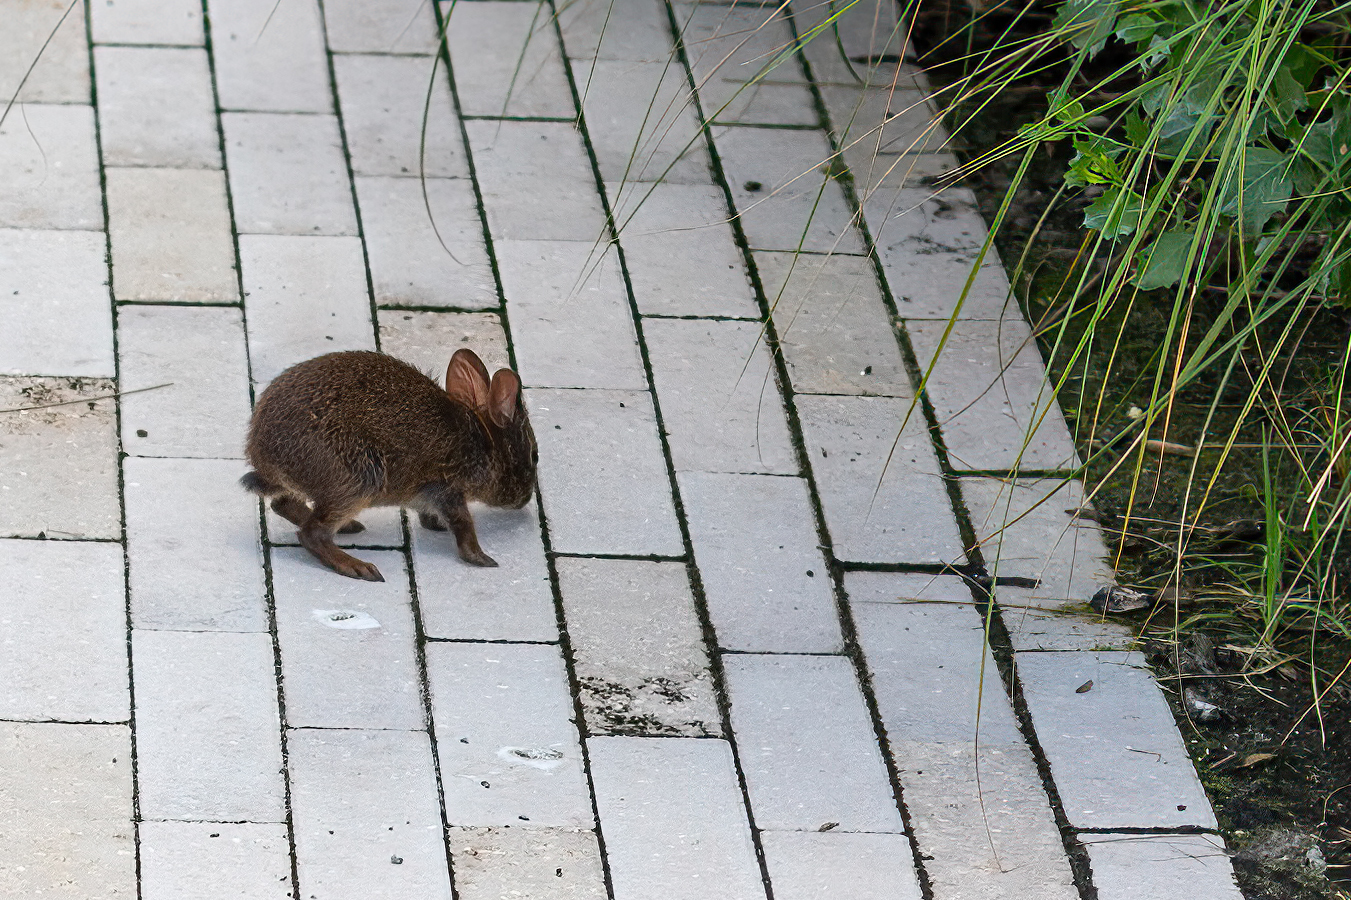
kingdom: Animalia
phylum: Chordata
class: Mammalia
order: Lagomorpha
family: Leporidae
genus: Sylvilagus
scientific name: Sylvilagus palustris
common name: Marsh rabbit
